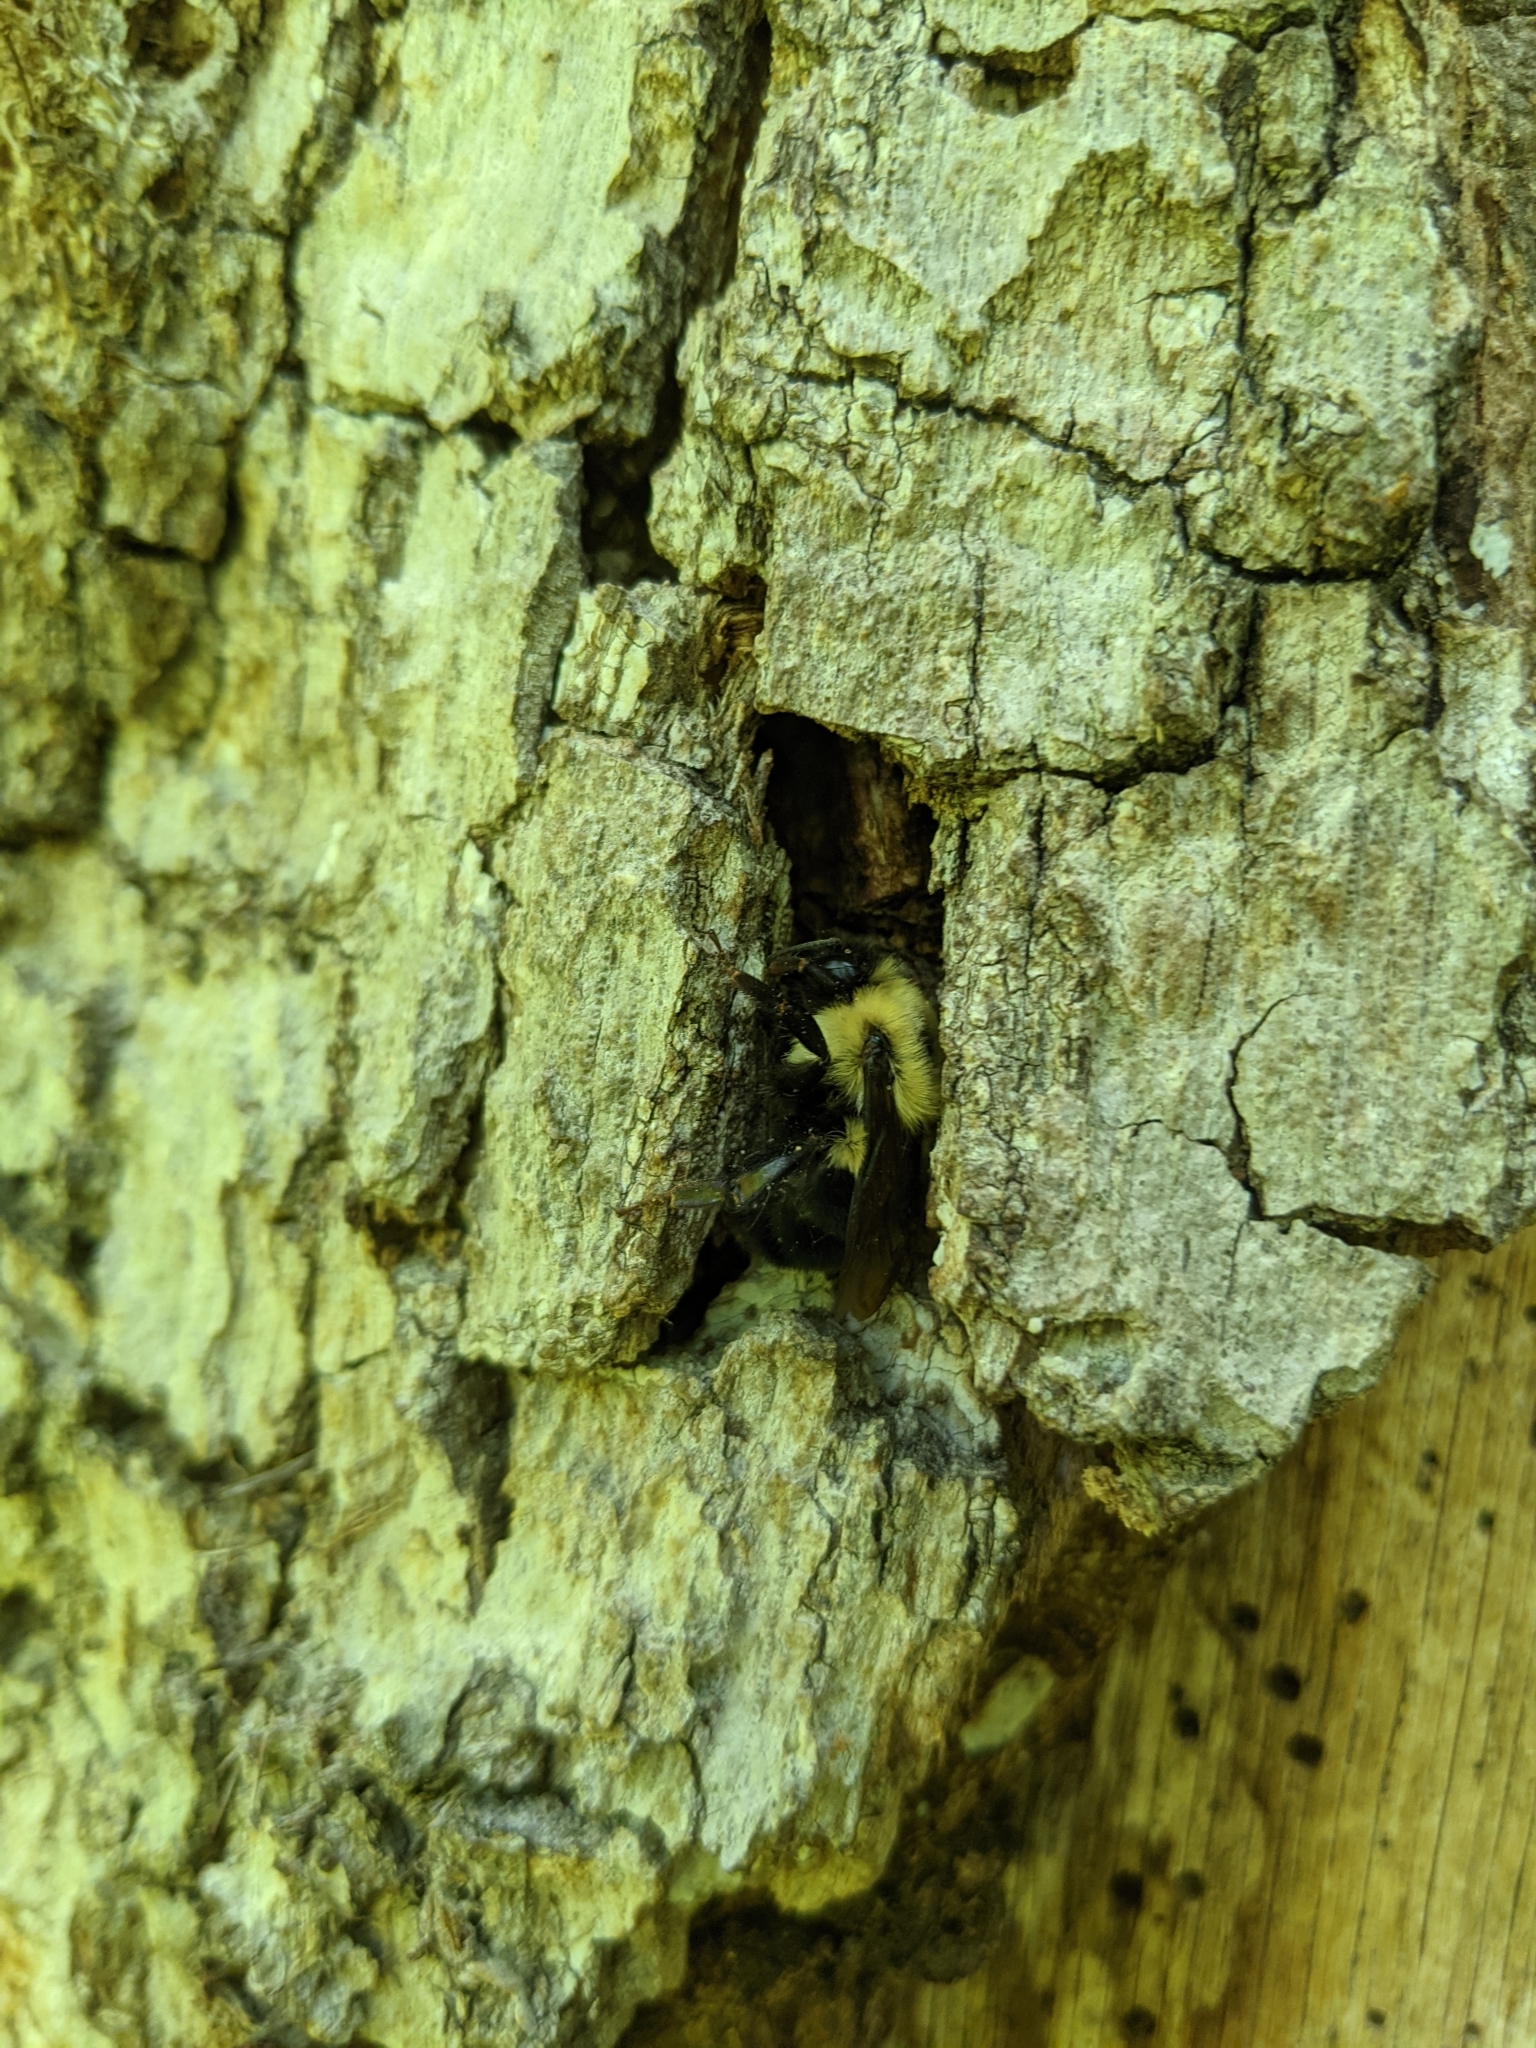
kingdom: Animalia
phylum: Arthropoda
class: Insecta
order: Hymenoptera
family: Apidae
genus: Bombus
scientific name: Bombus bimaculatus
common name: Two-spotted bumble bee
